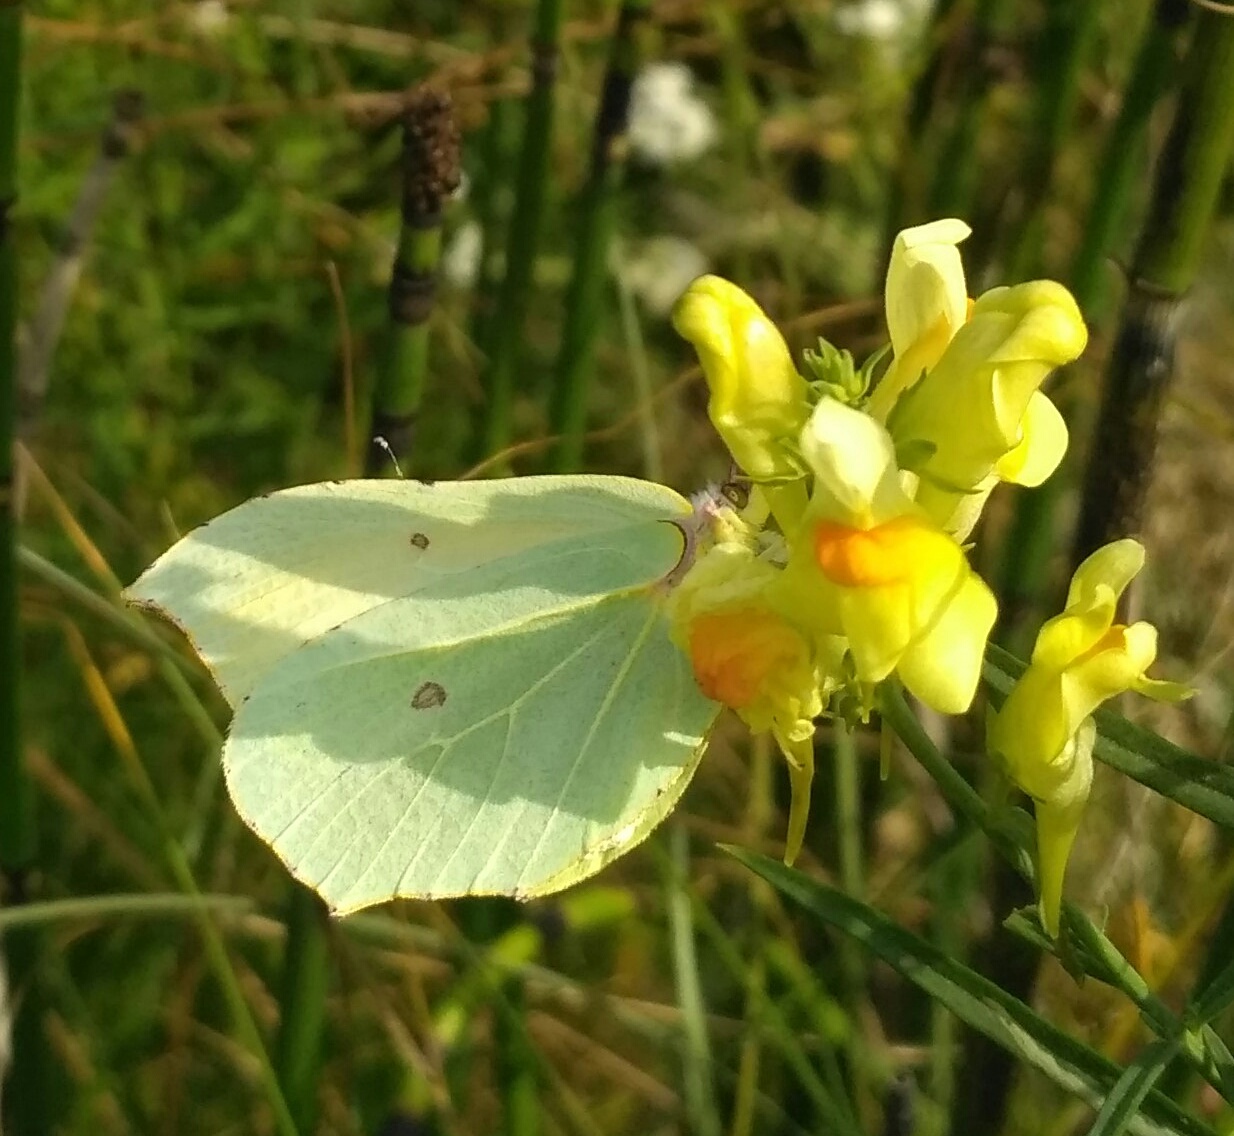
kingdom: Animalia
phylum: Arthropoda
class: Insecta
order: Lepidoptera
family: Pieridae
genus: Gonepteryx
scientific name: Gonepteryx rhamni
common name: Brimstone
